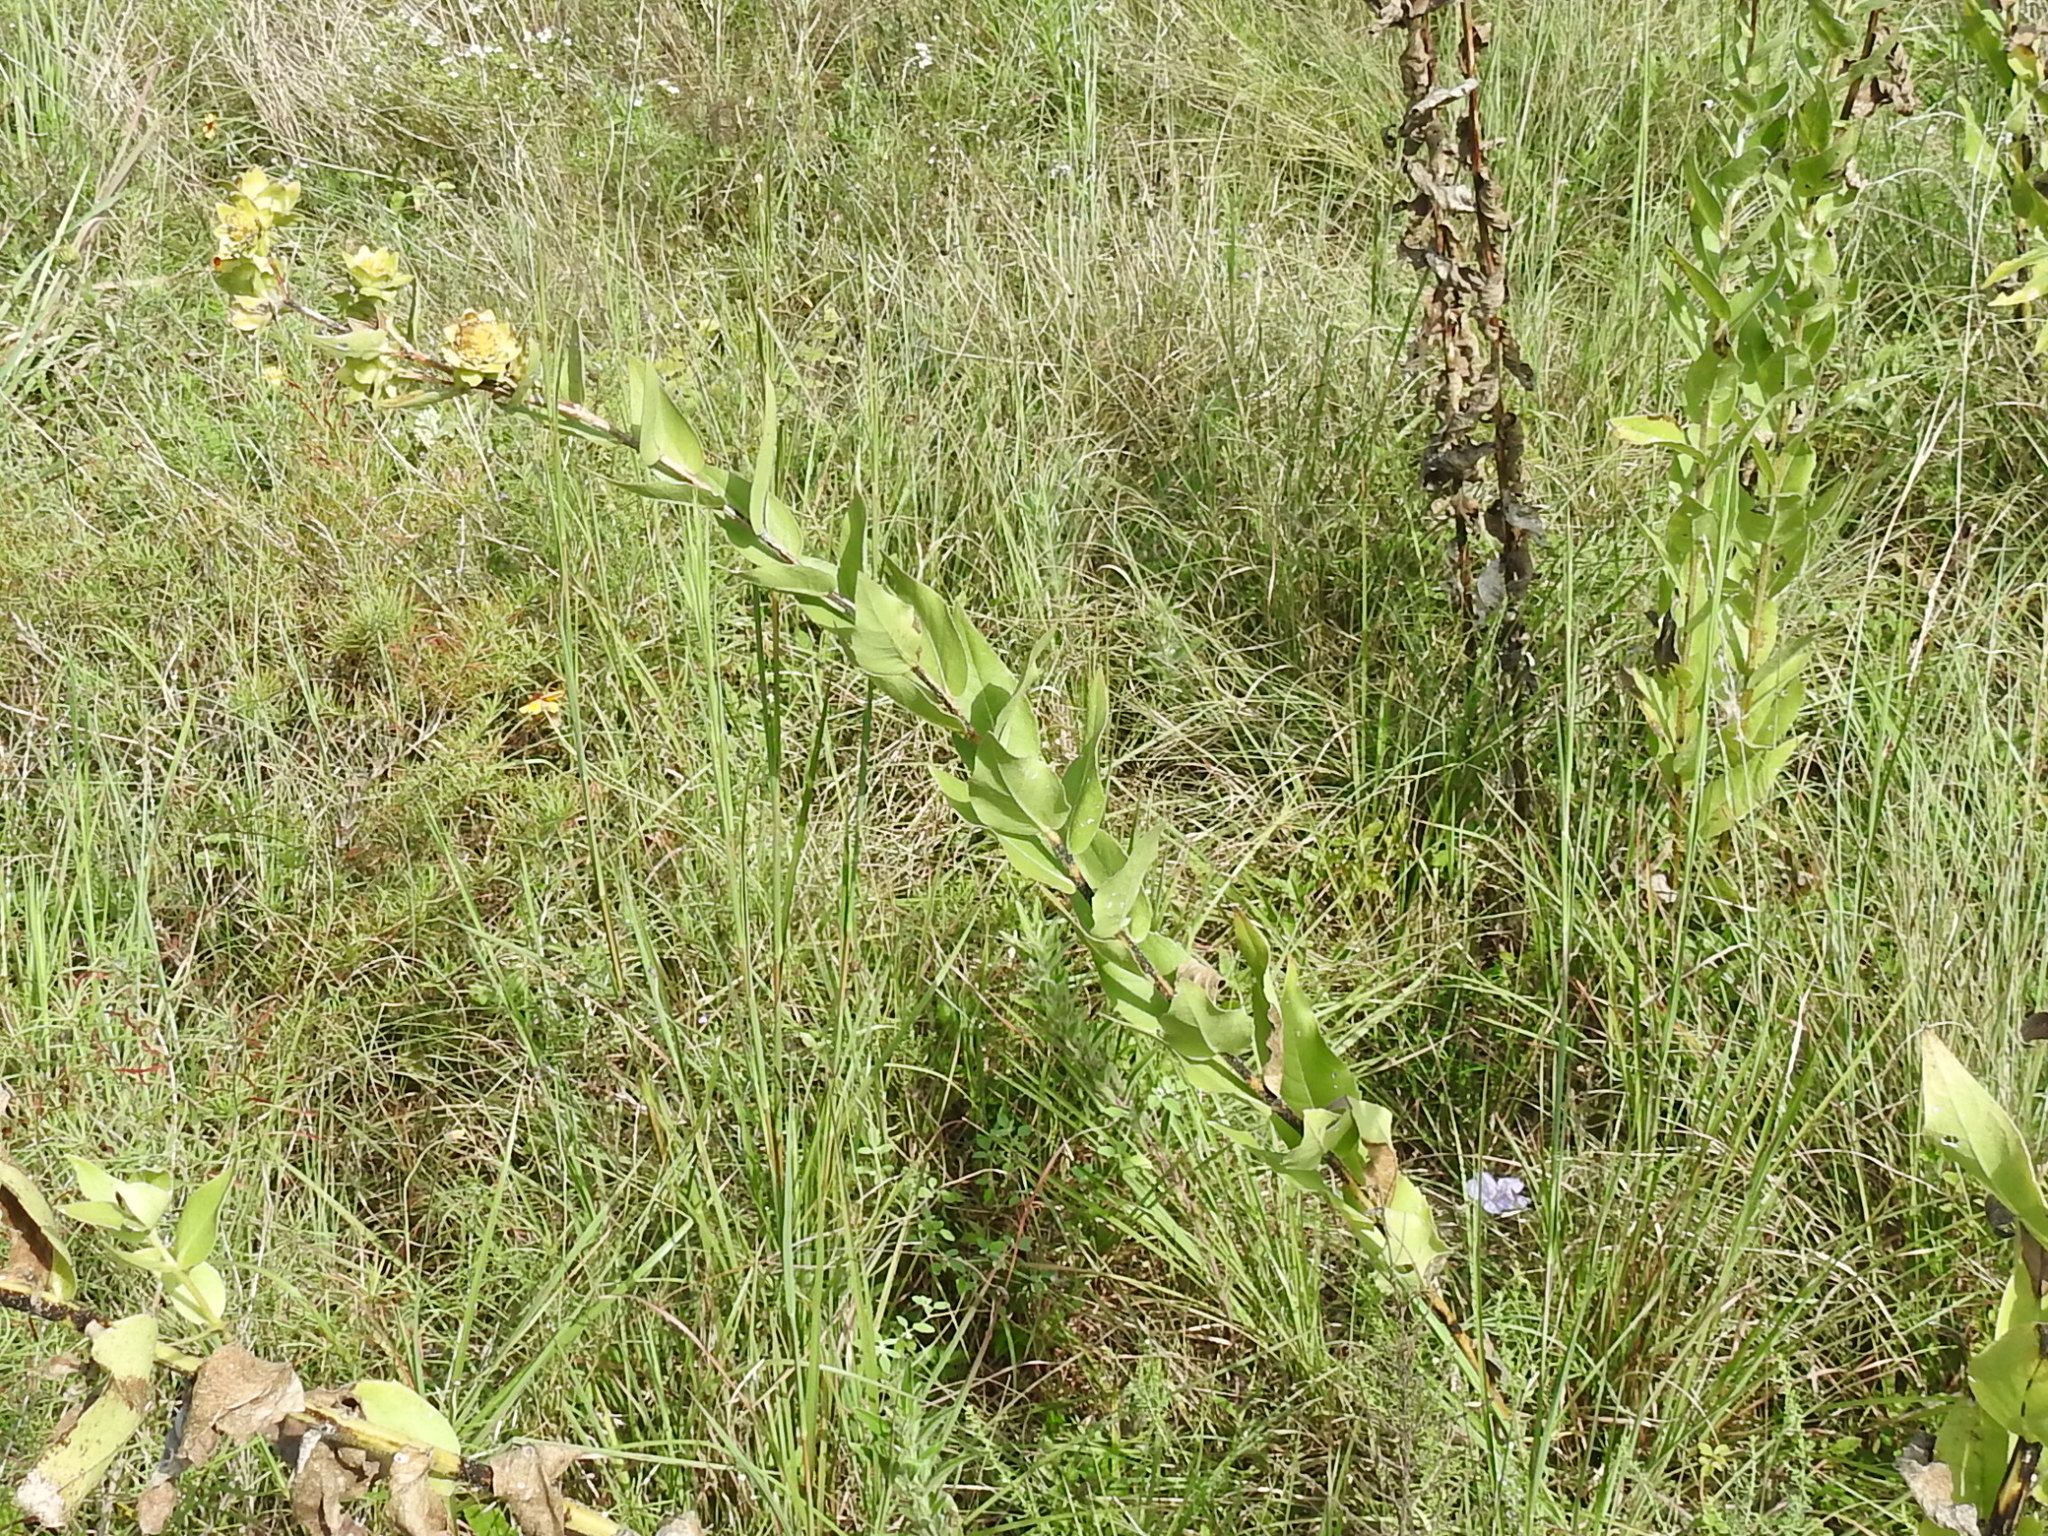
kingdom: Plantae
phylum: Tracheophyta
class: Magnoliopsida
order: Asterales
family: Asteraceae
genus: Silphium
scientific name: Silphium radula
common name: Roughleaf rosinweed
